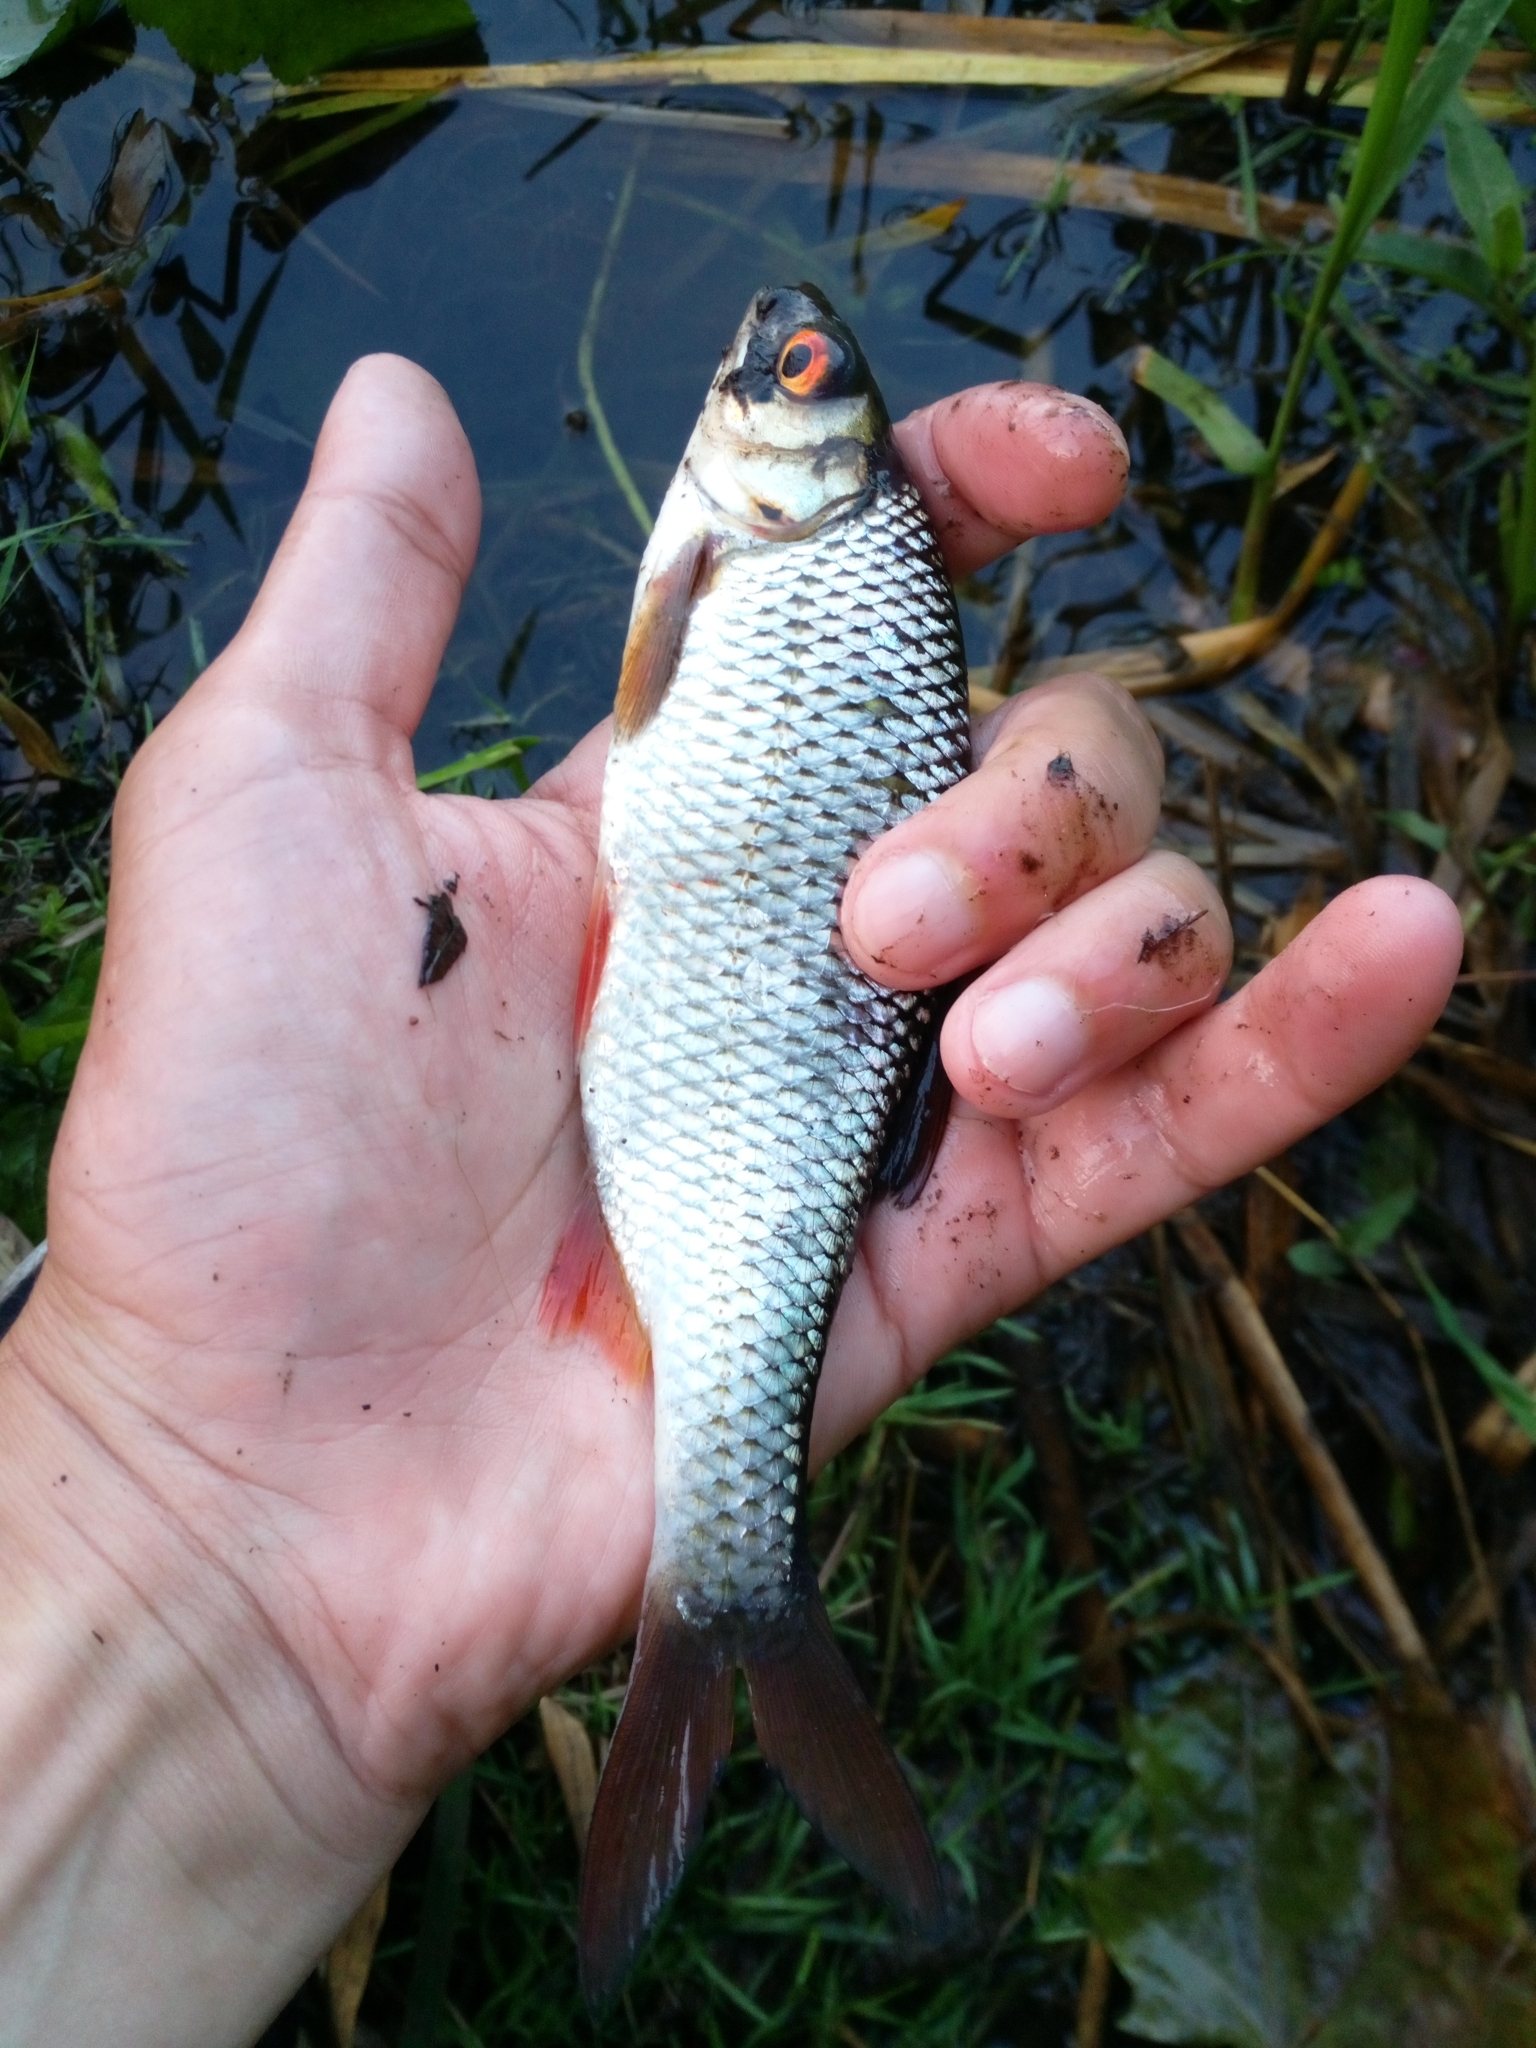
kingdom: Animalia
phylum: Chordata
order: Cypriniformes
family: Cyprinidae
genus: Rutilus
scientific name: Rutilus rutilus
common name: Roach
